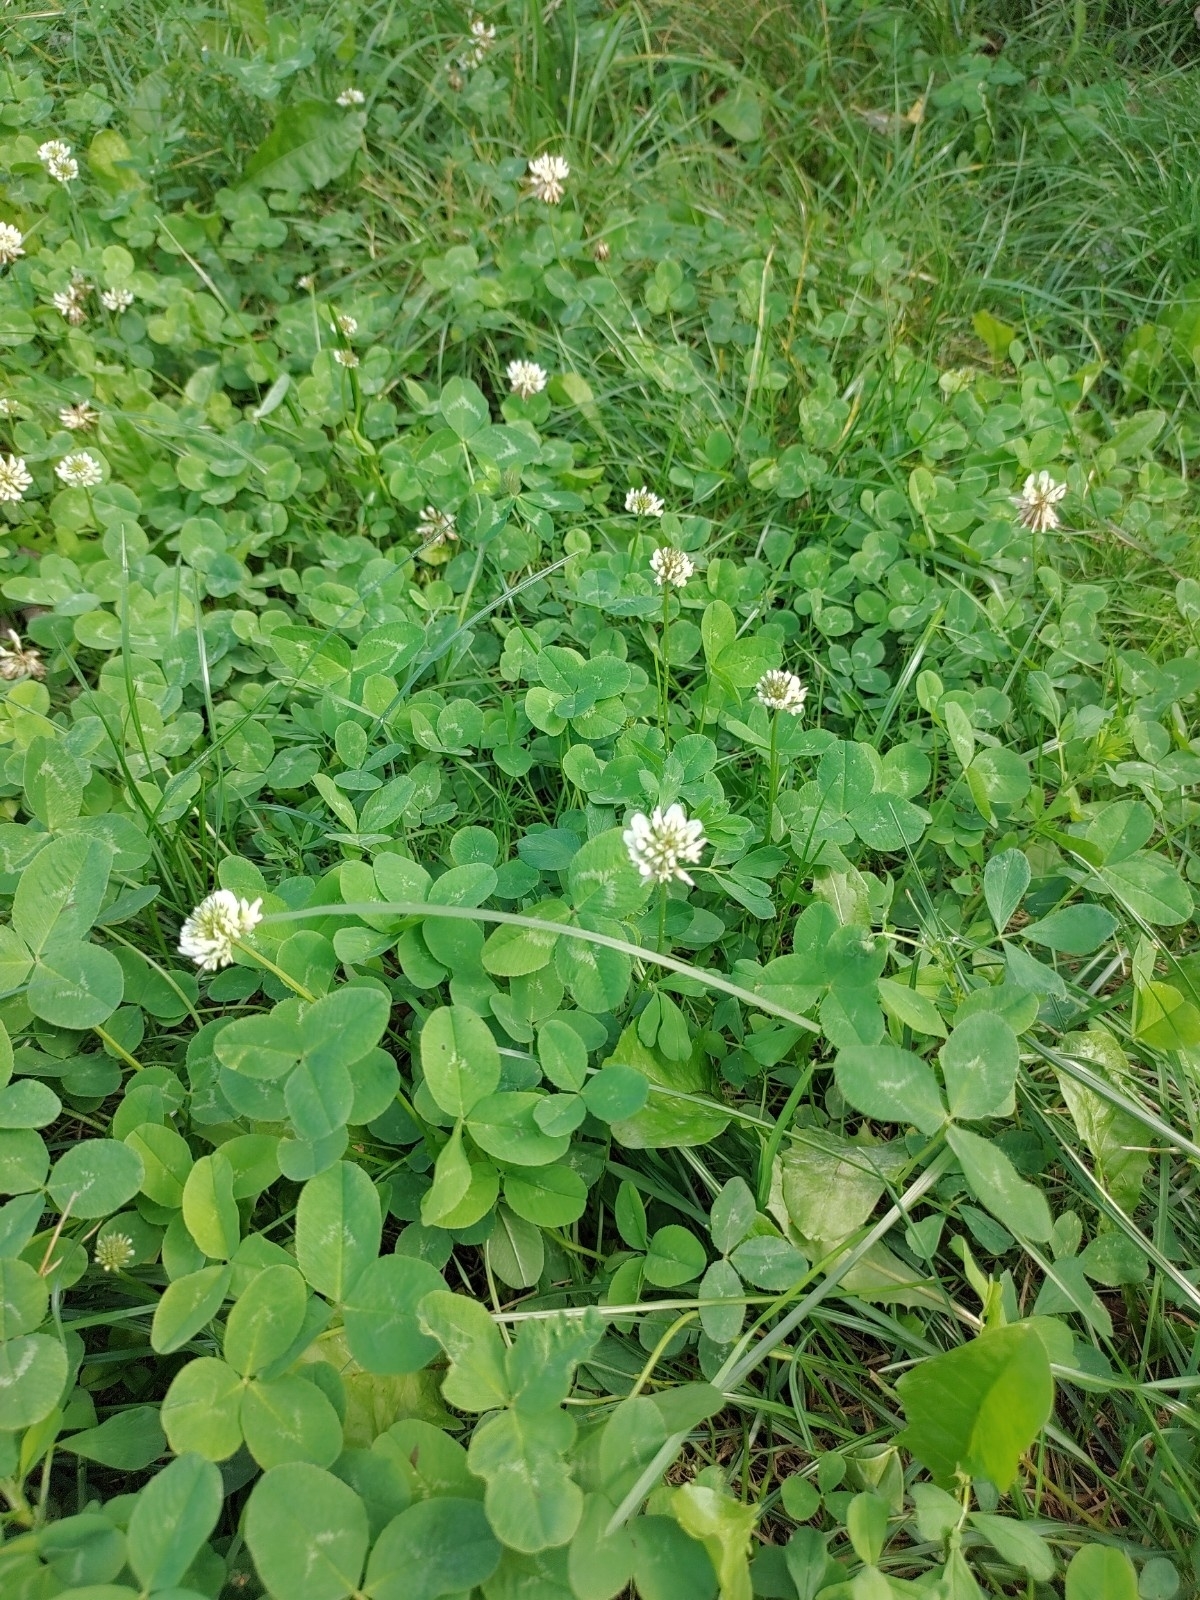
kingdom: Plantae
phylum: Tracheophyta
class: Magnoliopsida
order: Fabales
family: Fabaceae
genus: Trifolium
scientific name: Trifolium repens
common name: White clover
